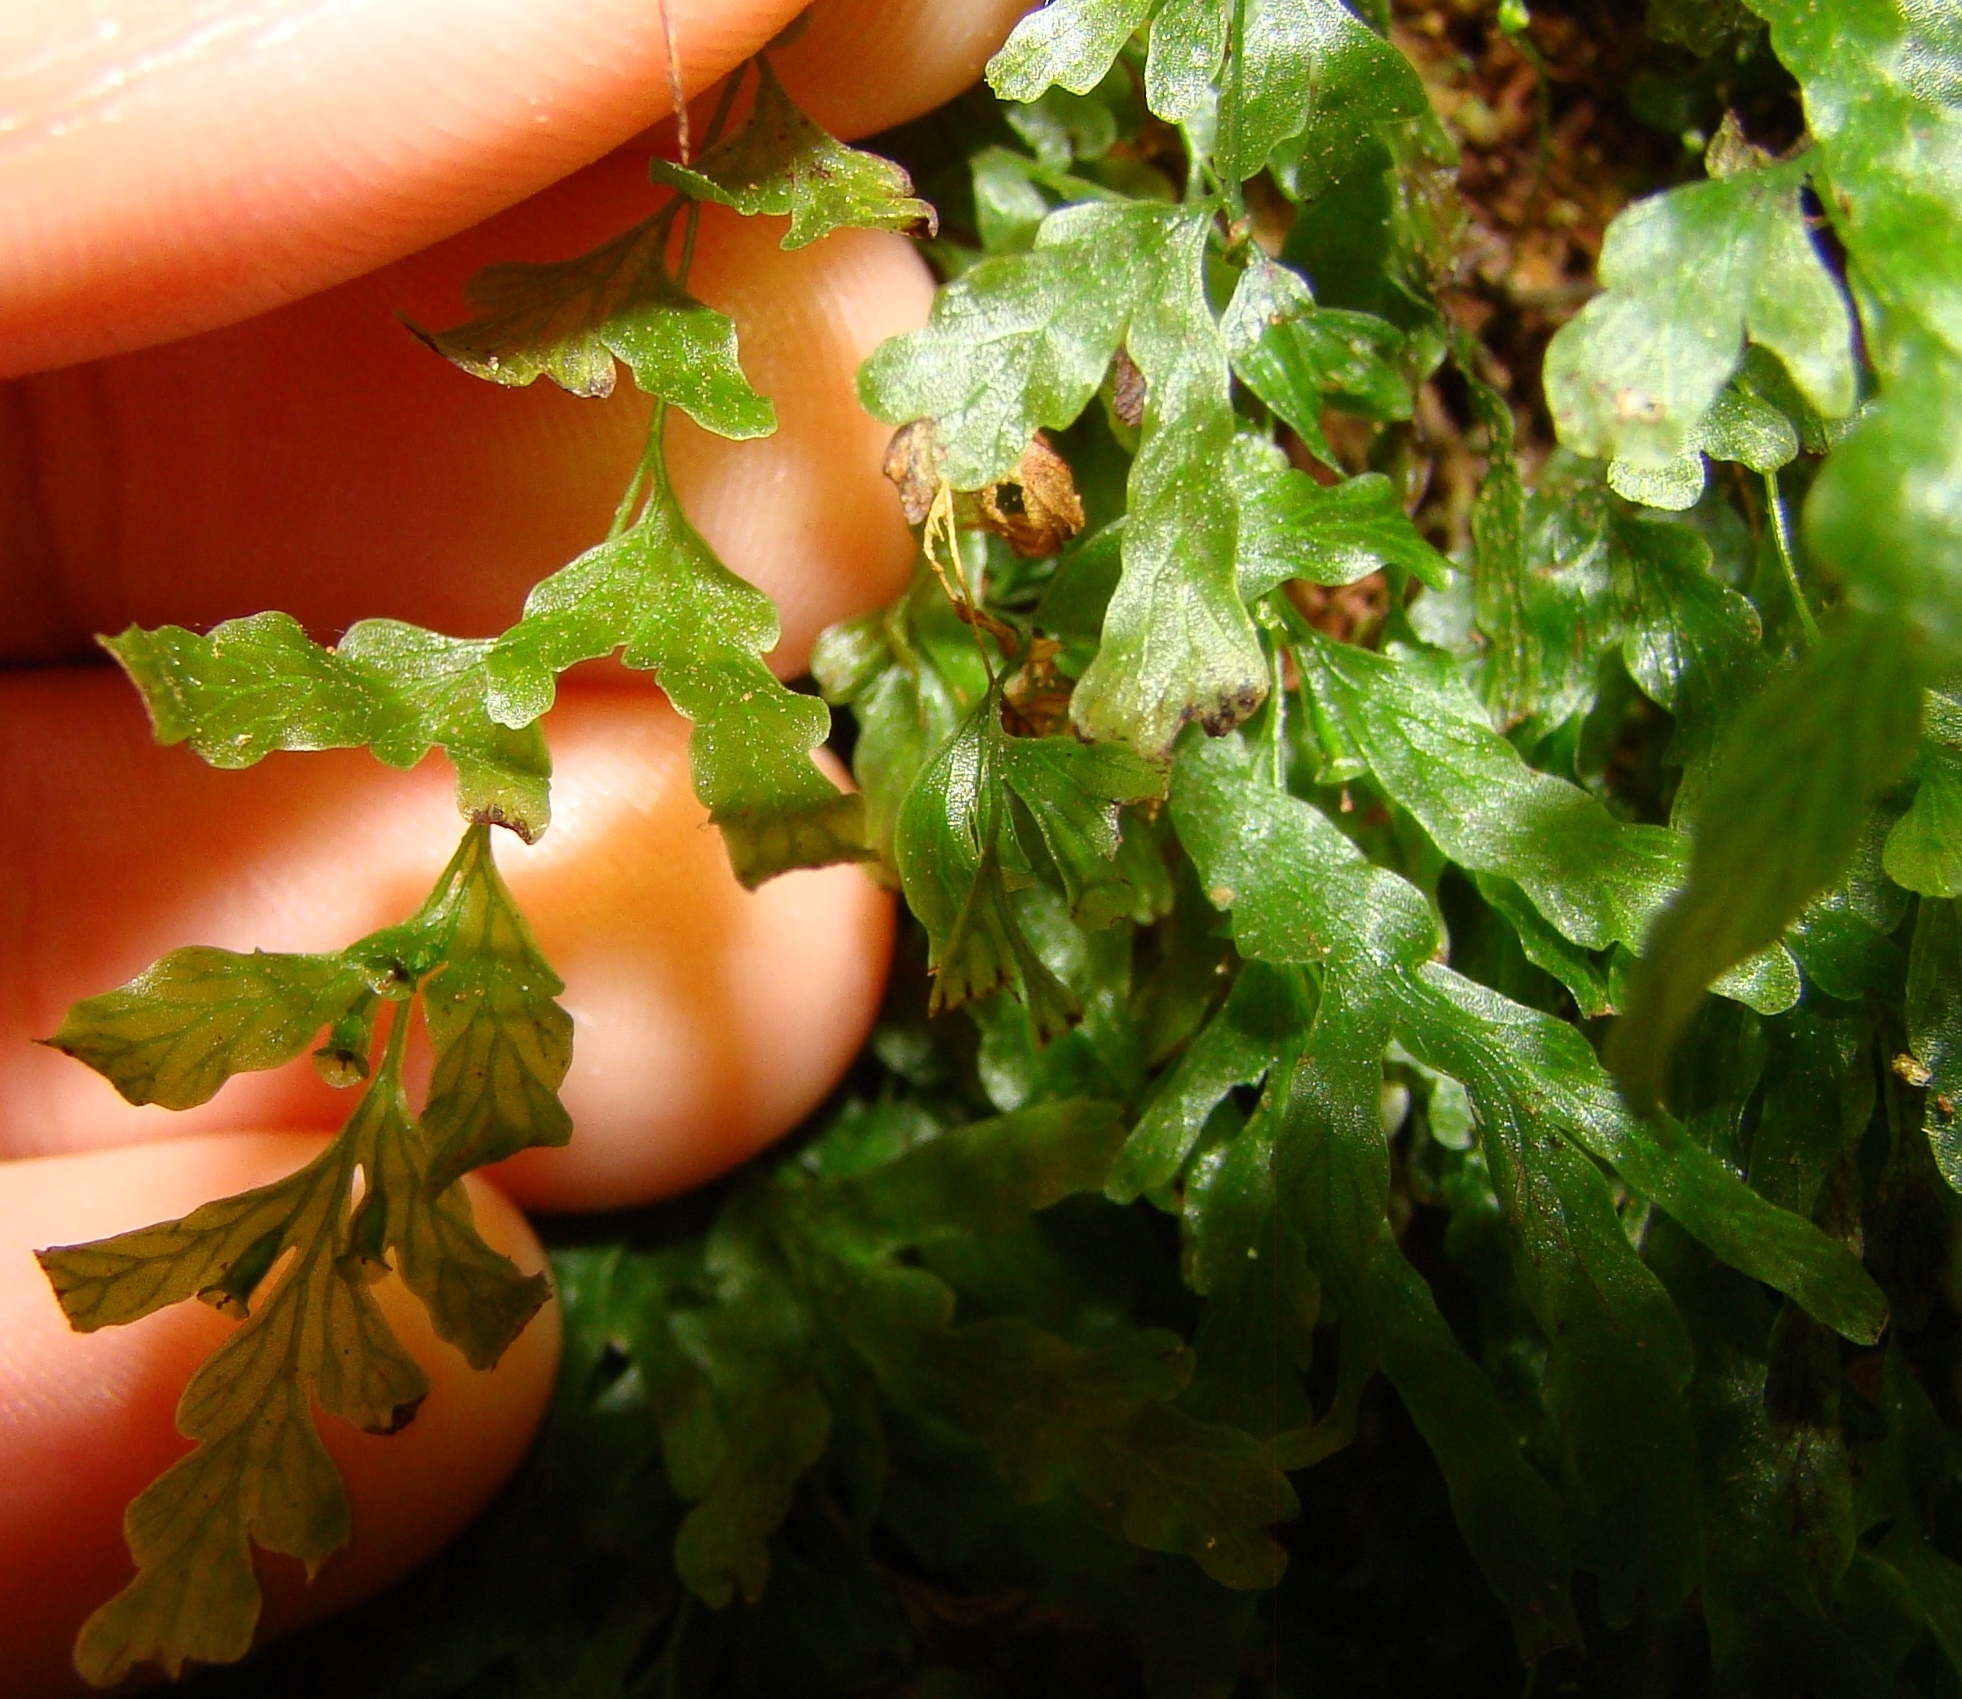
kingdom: Plantae
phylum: Tracheophyta
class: Polypodiopsida
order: Hymenophyllales
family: Hymenophyllaceae
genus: Polyphlebium
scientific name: Polyphlebium venosum
